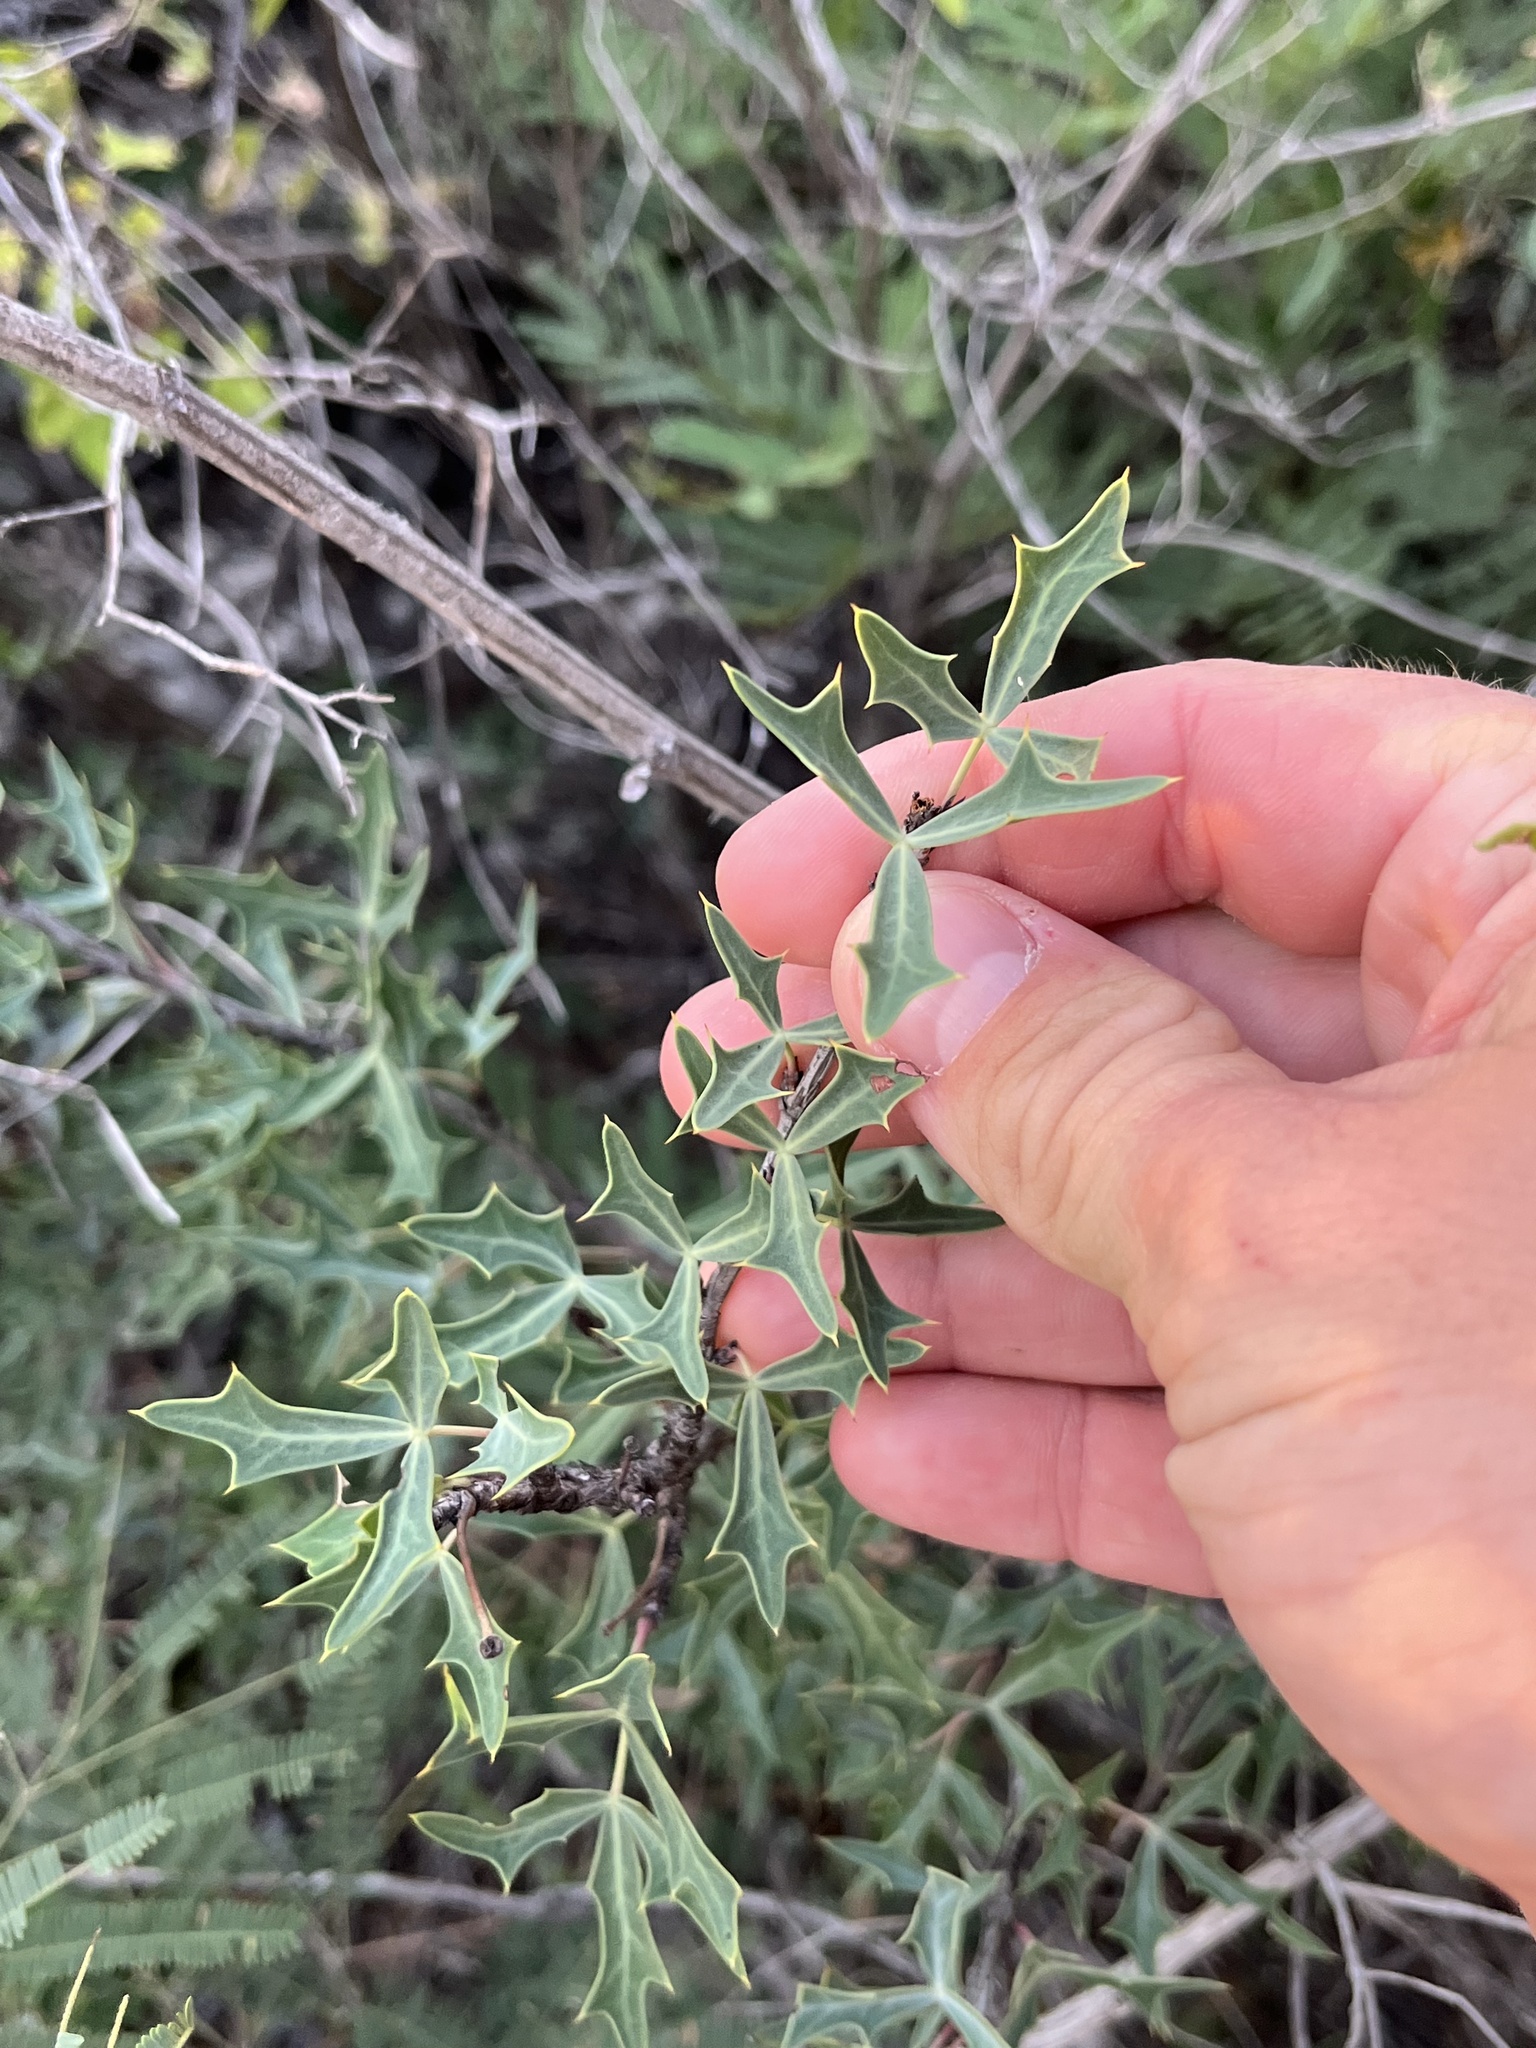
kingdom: Plantae
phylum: Tracheophyta
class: Magnoliopsida
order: Ranunculales
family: Berberidaceae
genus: Alloberberis
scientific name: Alloberberis trifoliolata
